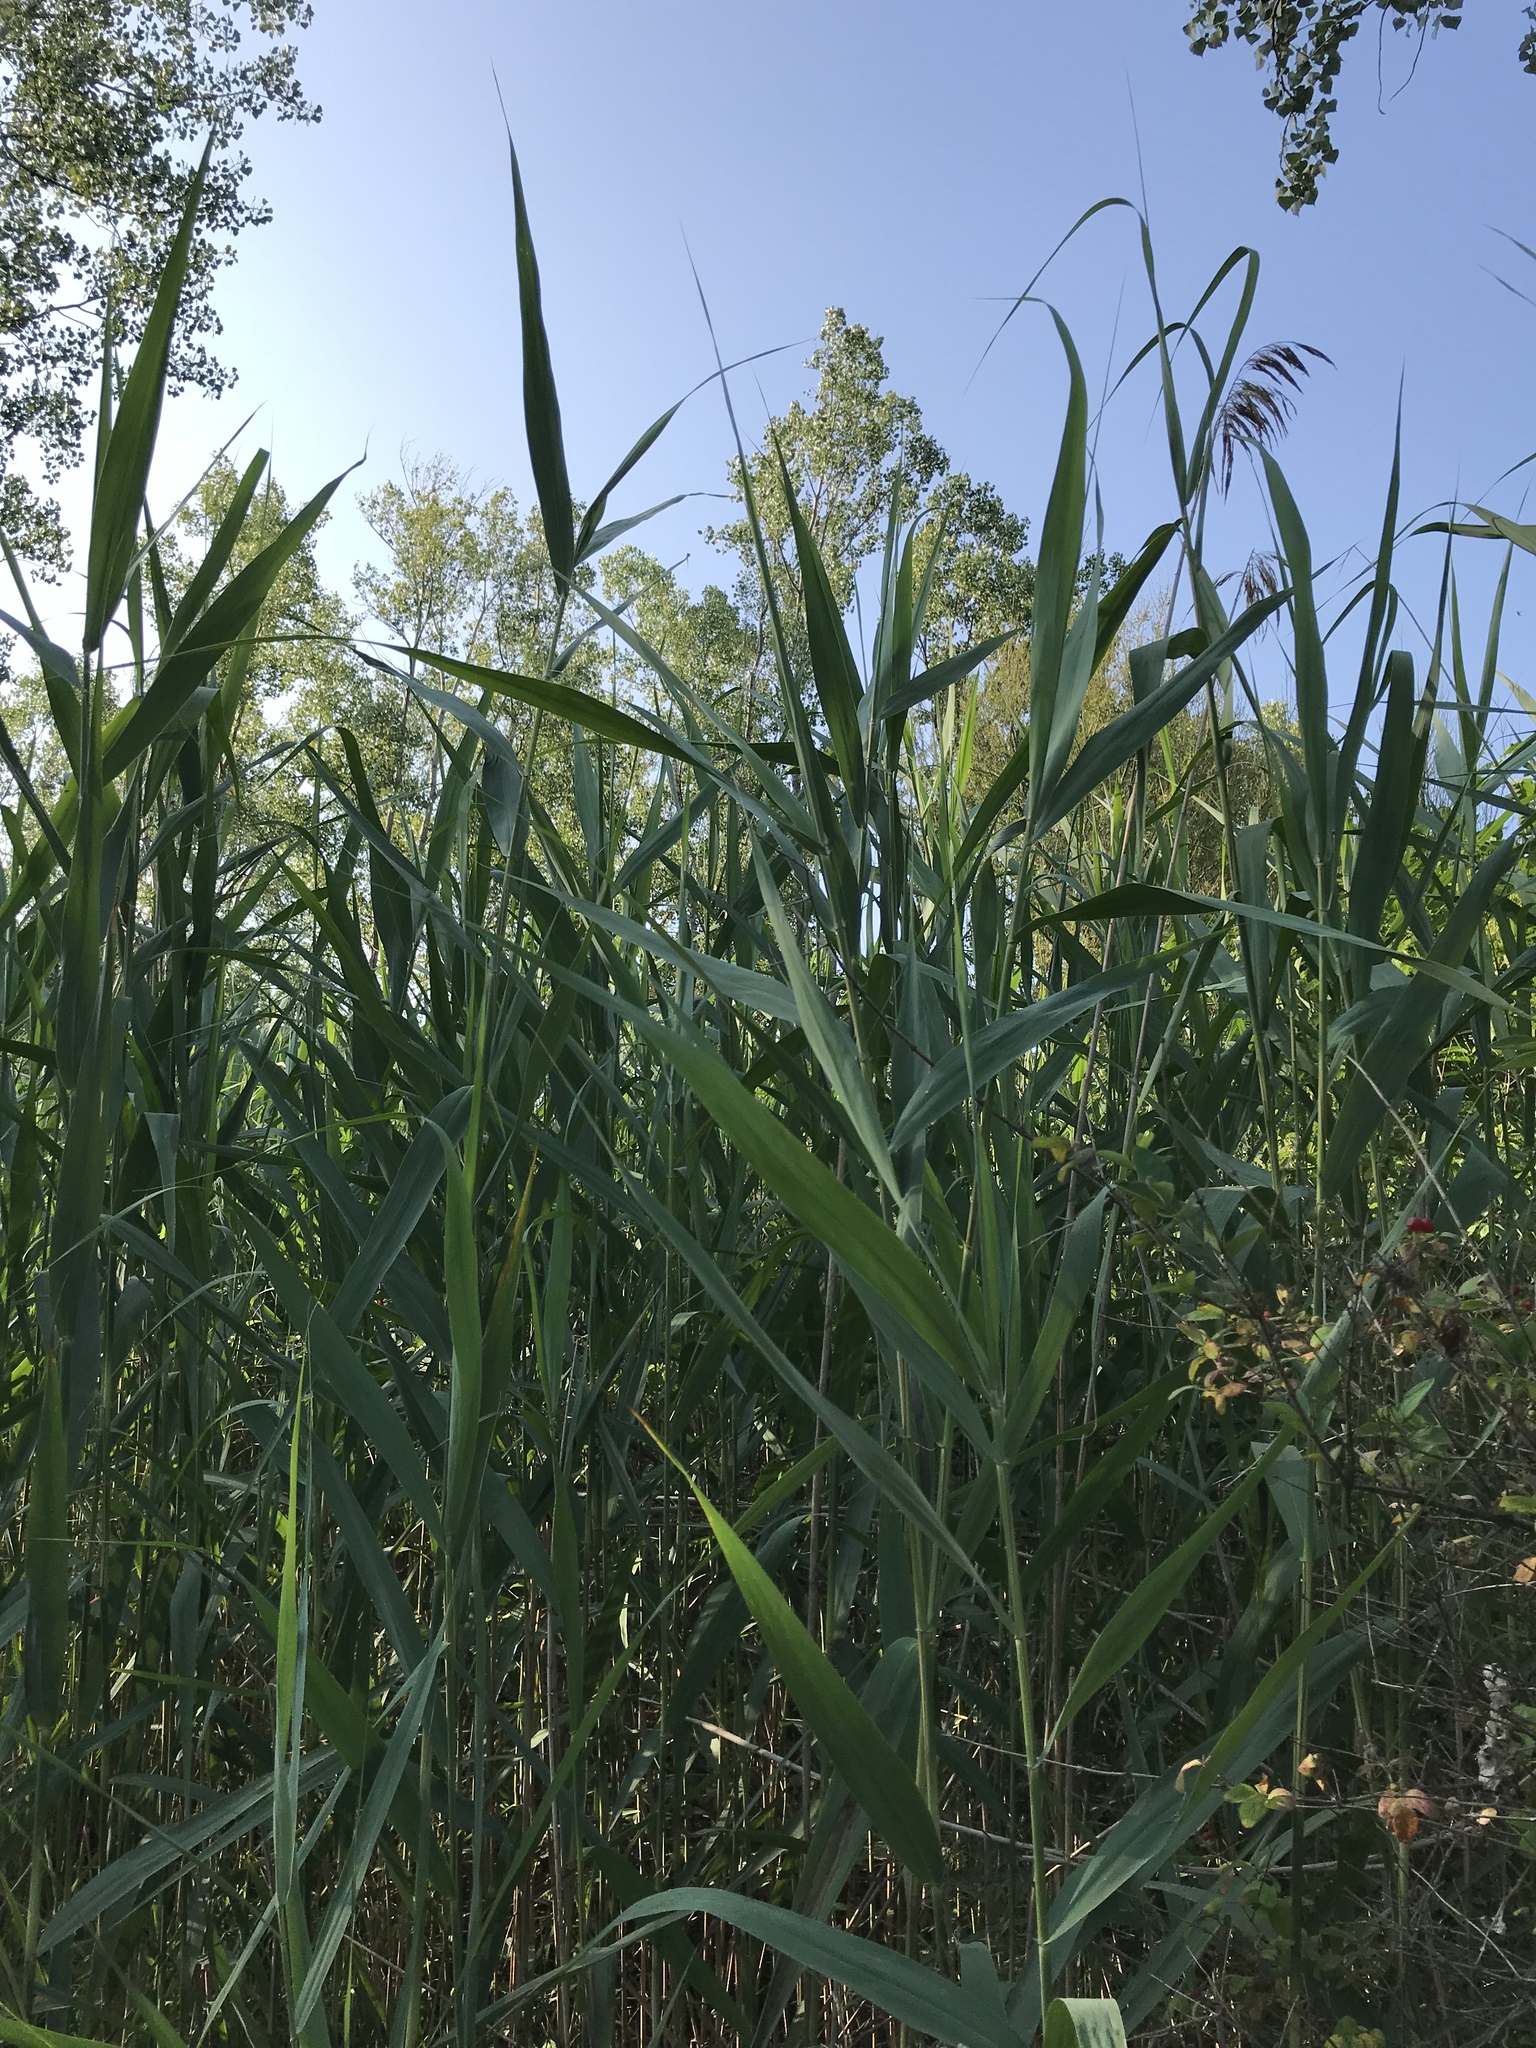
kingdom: Plantae
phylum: Tracheophyta
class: Liliopsida
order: Poales
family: Poaceae
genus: Phragmites
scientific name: Phragmites australis
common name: Common reed
